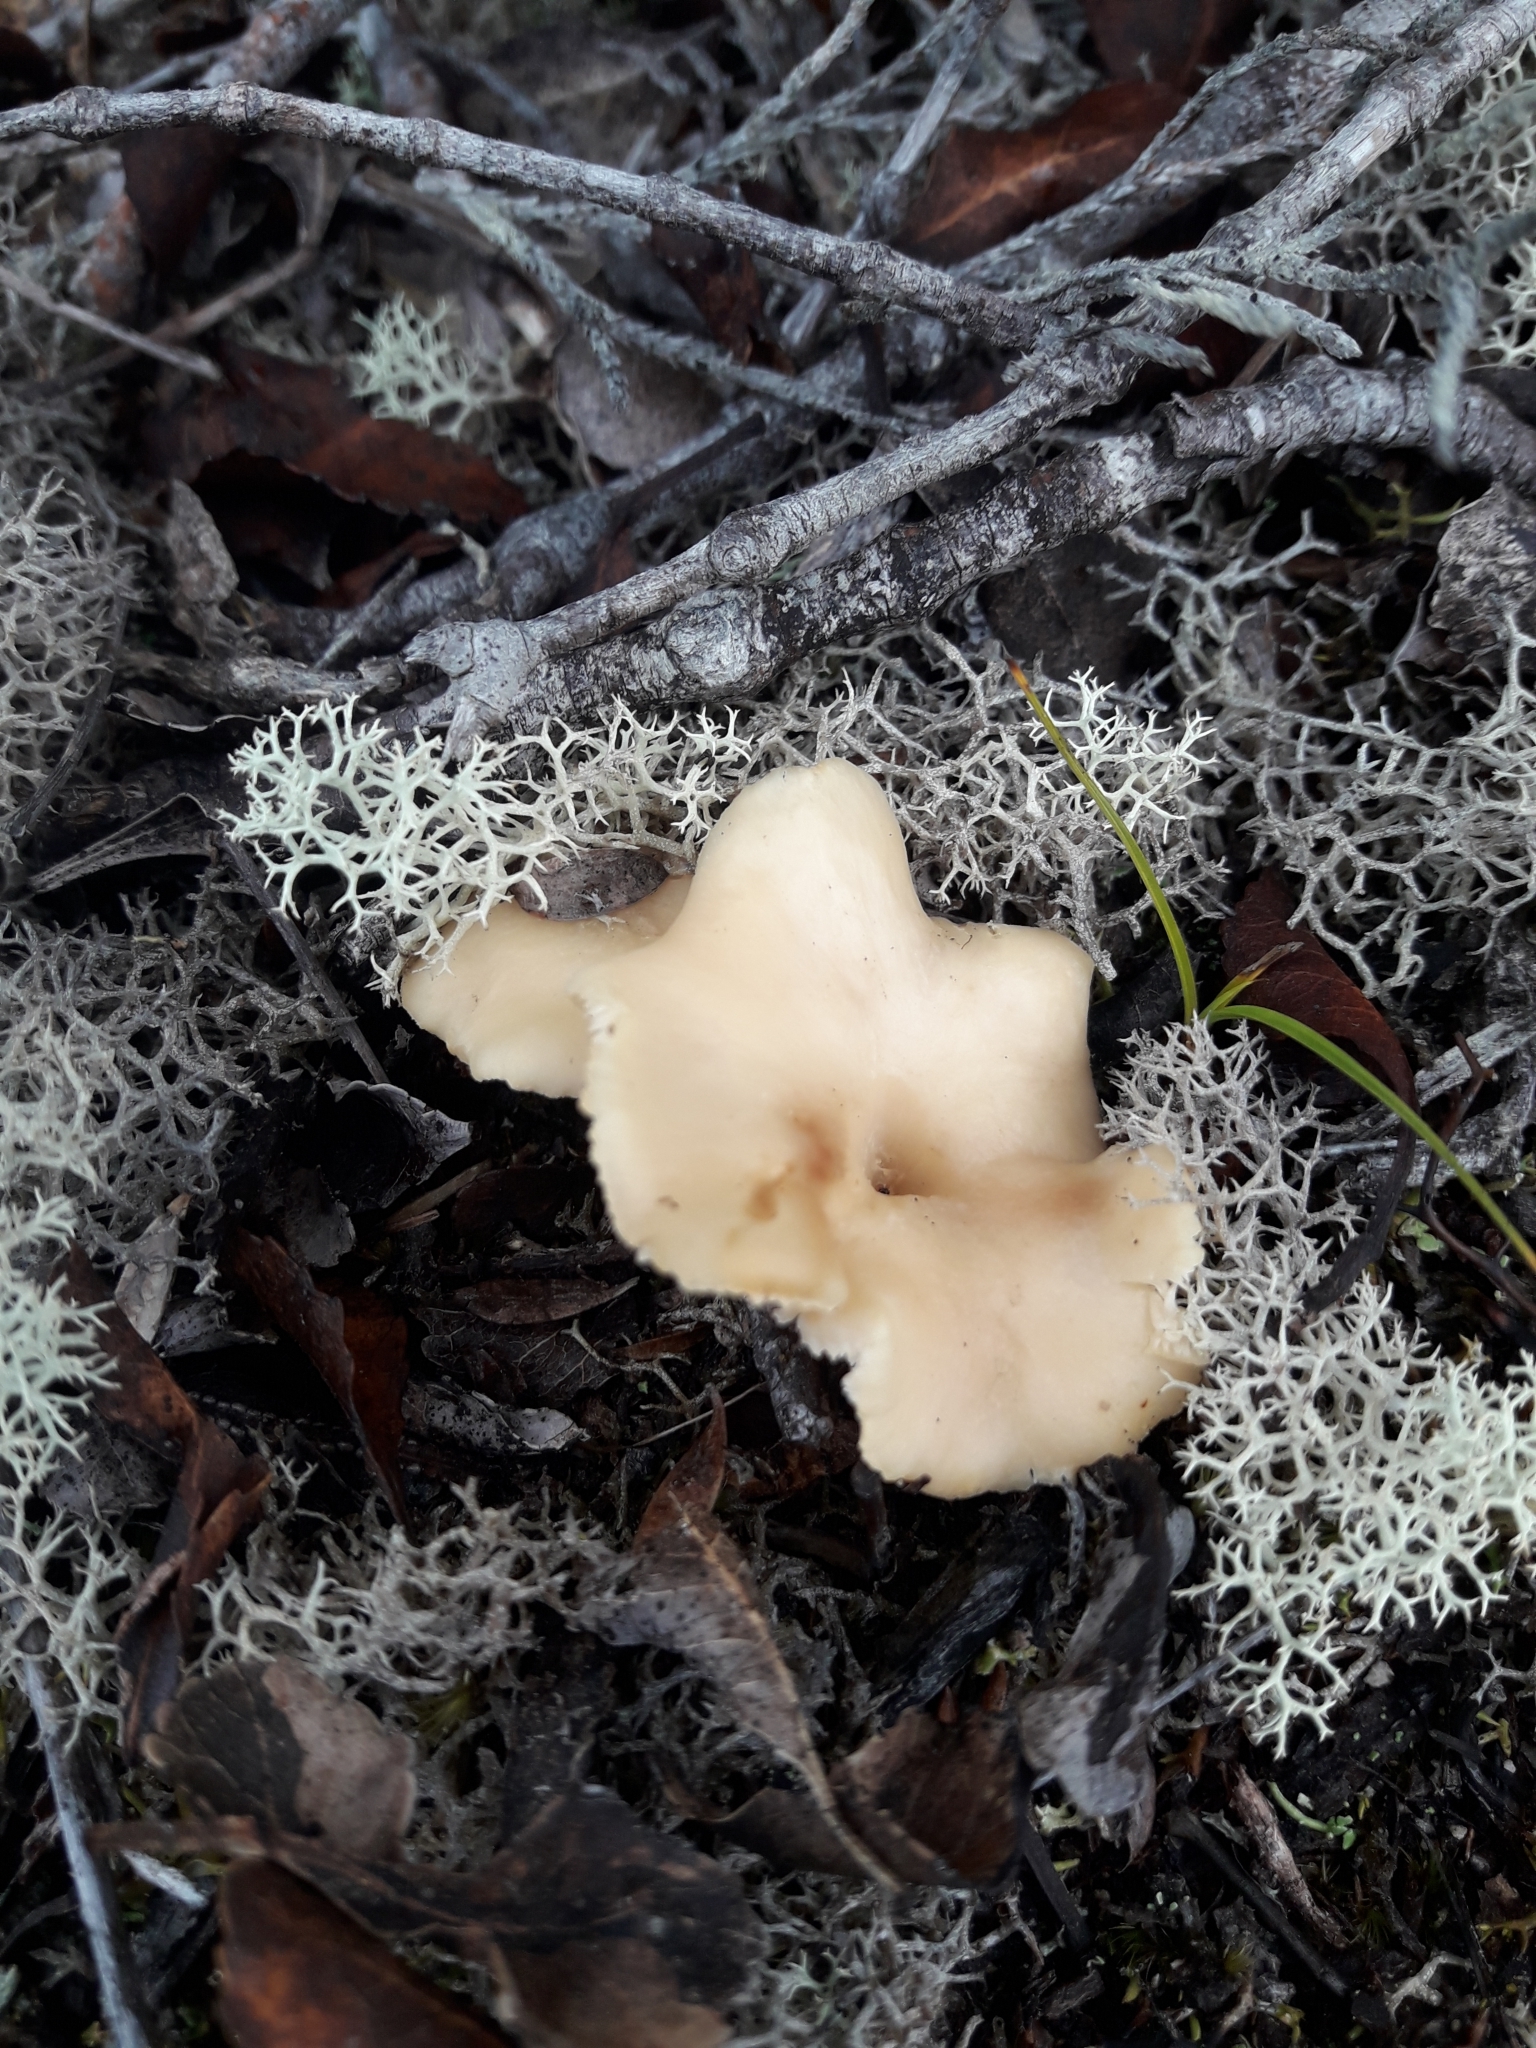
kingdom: Fungi
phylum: Basidiomycota
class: Agaricomycetes
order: Cantharellales
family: Hydnaceae
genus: Hydnum
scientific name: Hydnum ambustum
